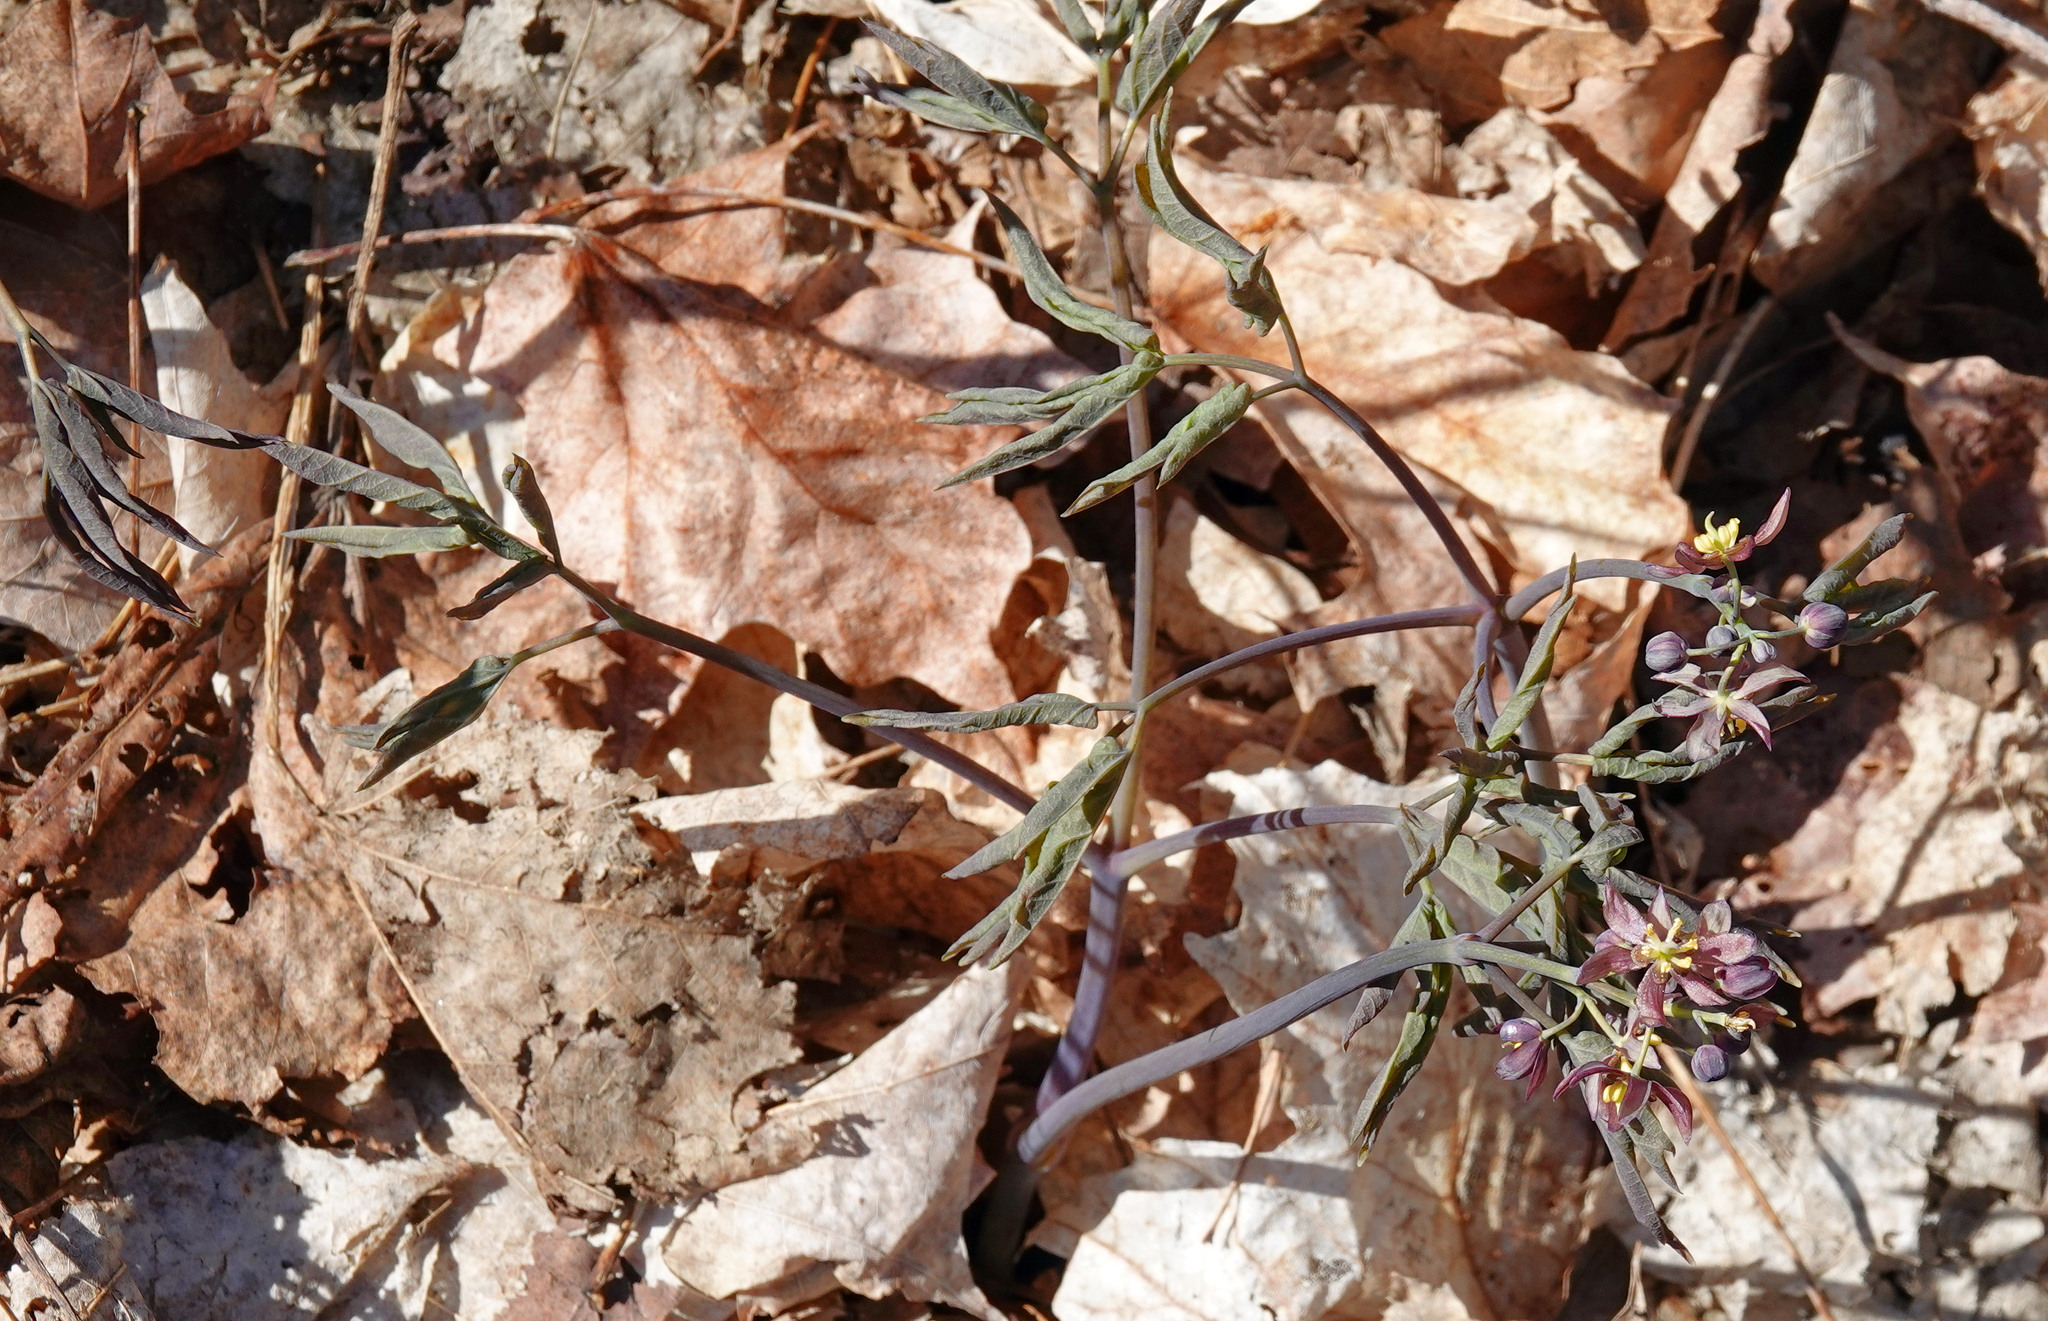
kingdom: Plantae
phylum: Tracheophyta
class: Magnoliopsida
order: Ranunculales
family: Berberidaceae
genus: Caulophyllum
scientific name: Caulophyllum giganteum
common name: Blue cohosh
